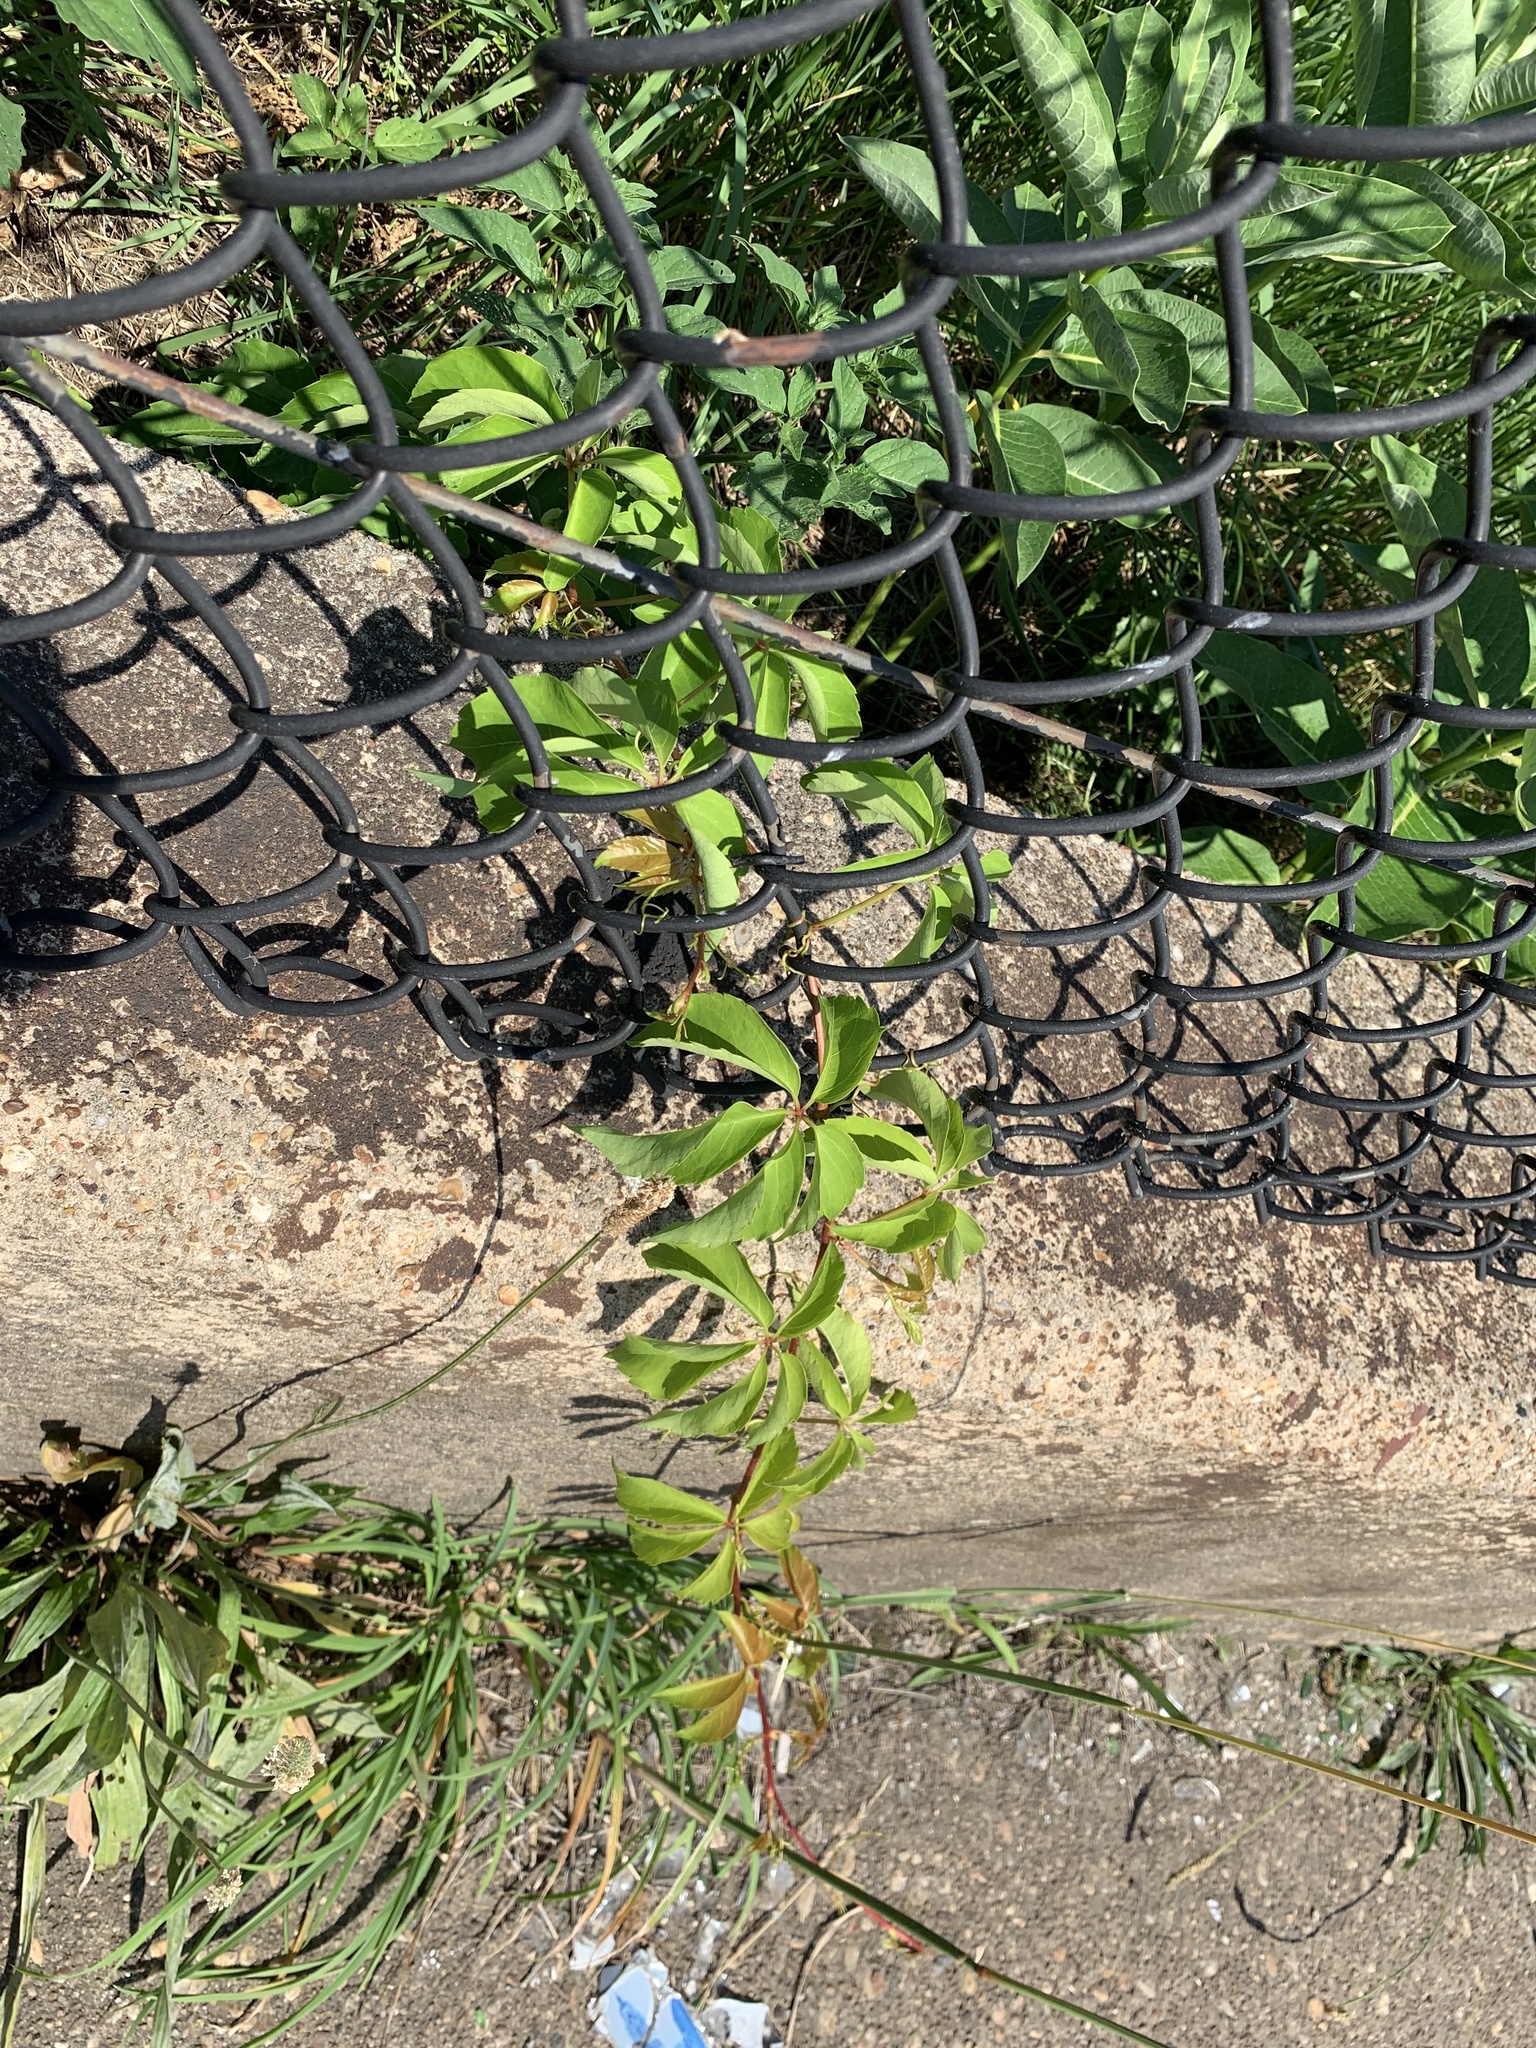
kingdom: Plantae
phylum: Tracheophyta
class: Magnoliopsida
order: Vitales
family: Vitaceae
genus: Parthenocissus
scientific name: Parthenocissus quinquefolia
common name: Virginia-creeper
